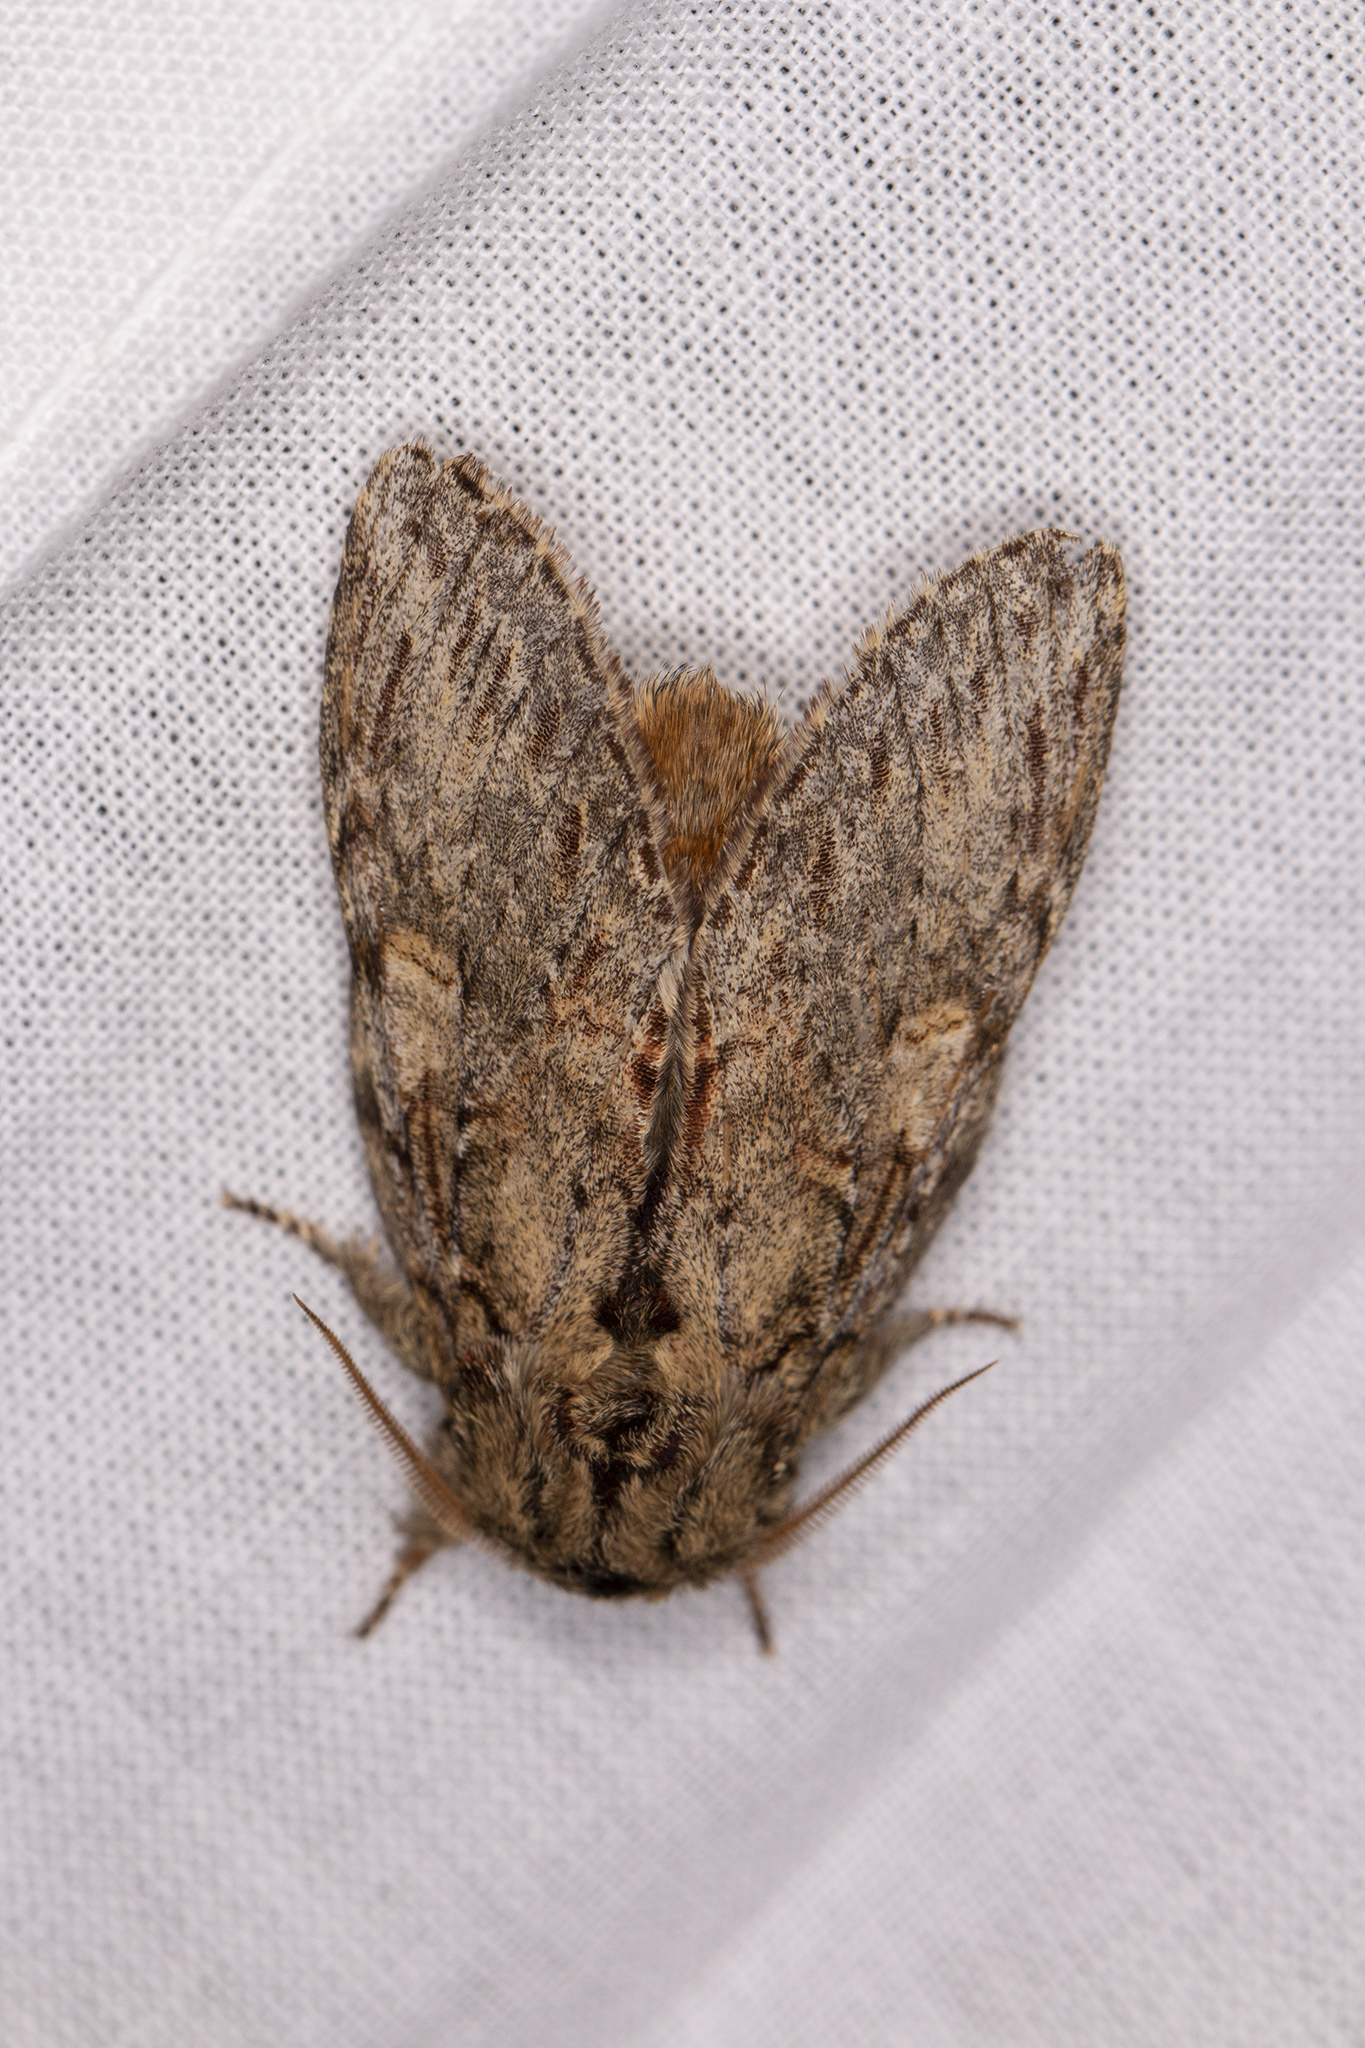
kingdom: Animalia
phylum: Arthropoda
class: Insecta
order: Lepidoptera
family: Notodontidae
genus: Peridea
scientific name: Peridea anceps
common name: Great prominent
